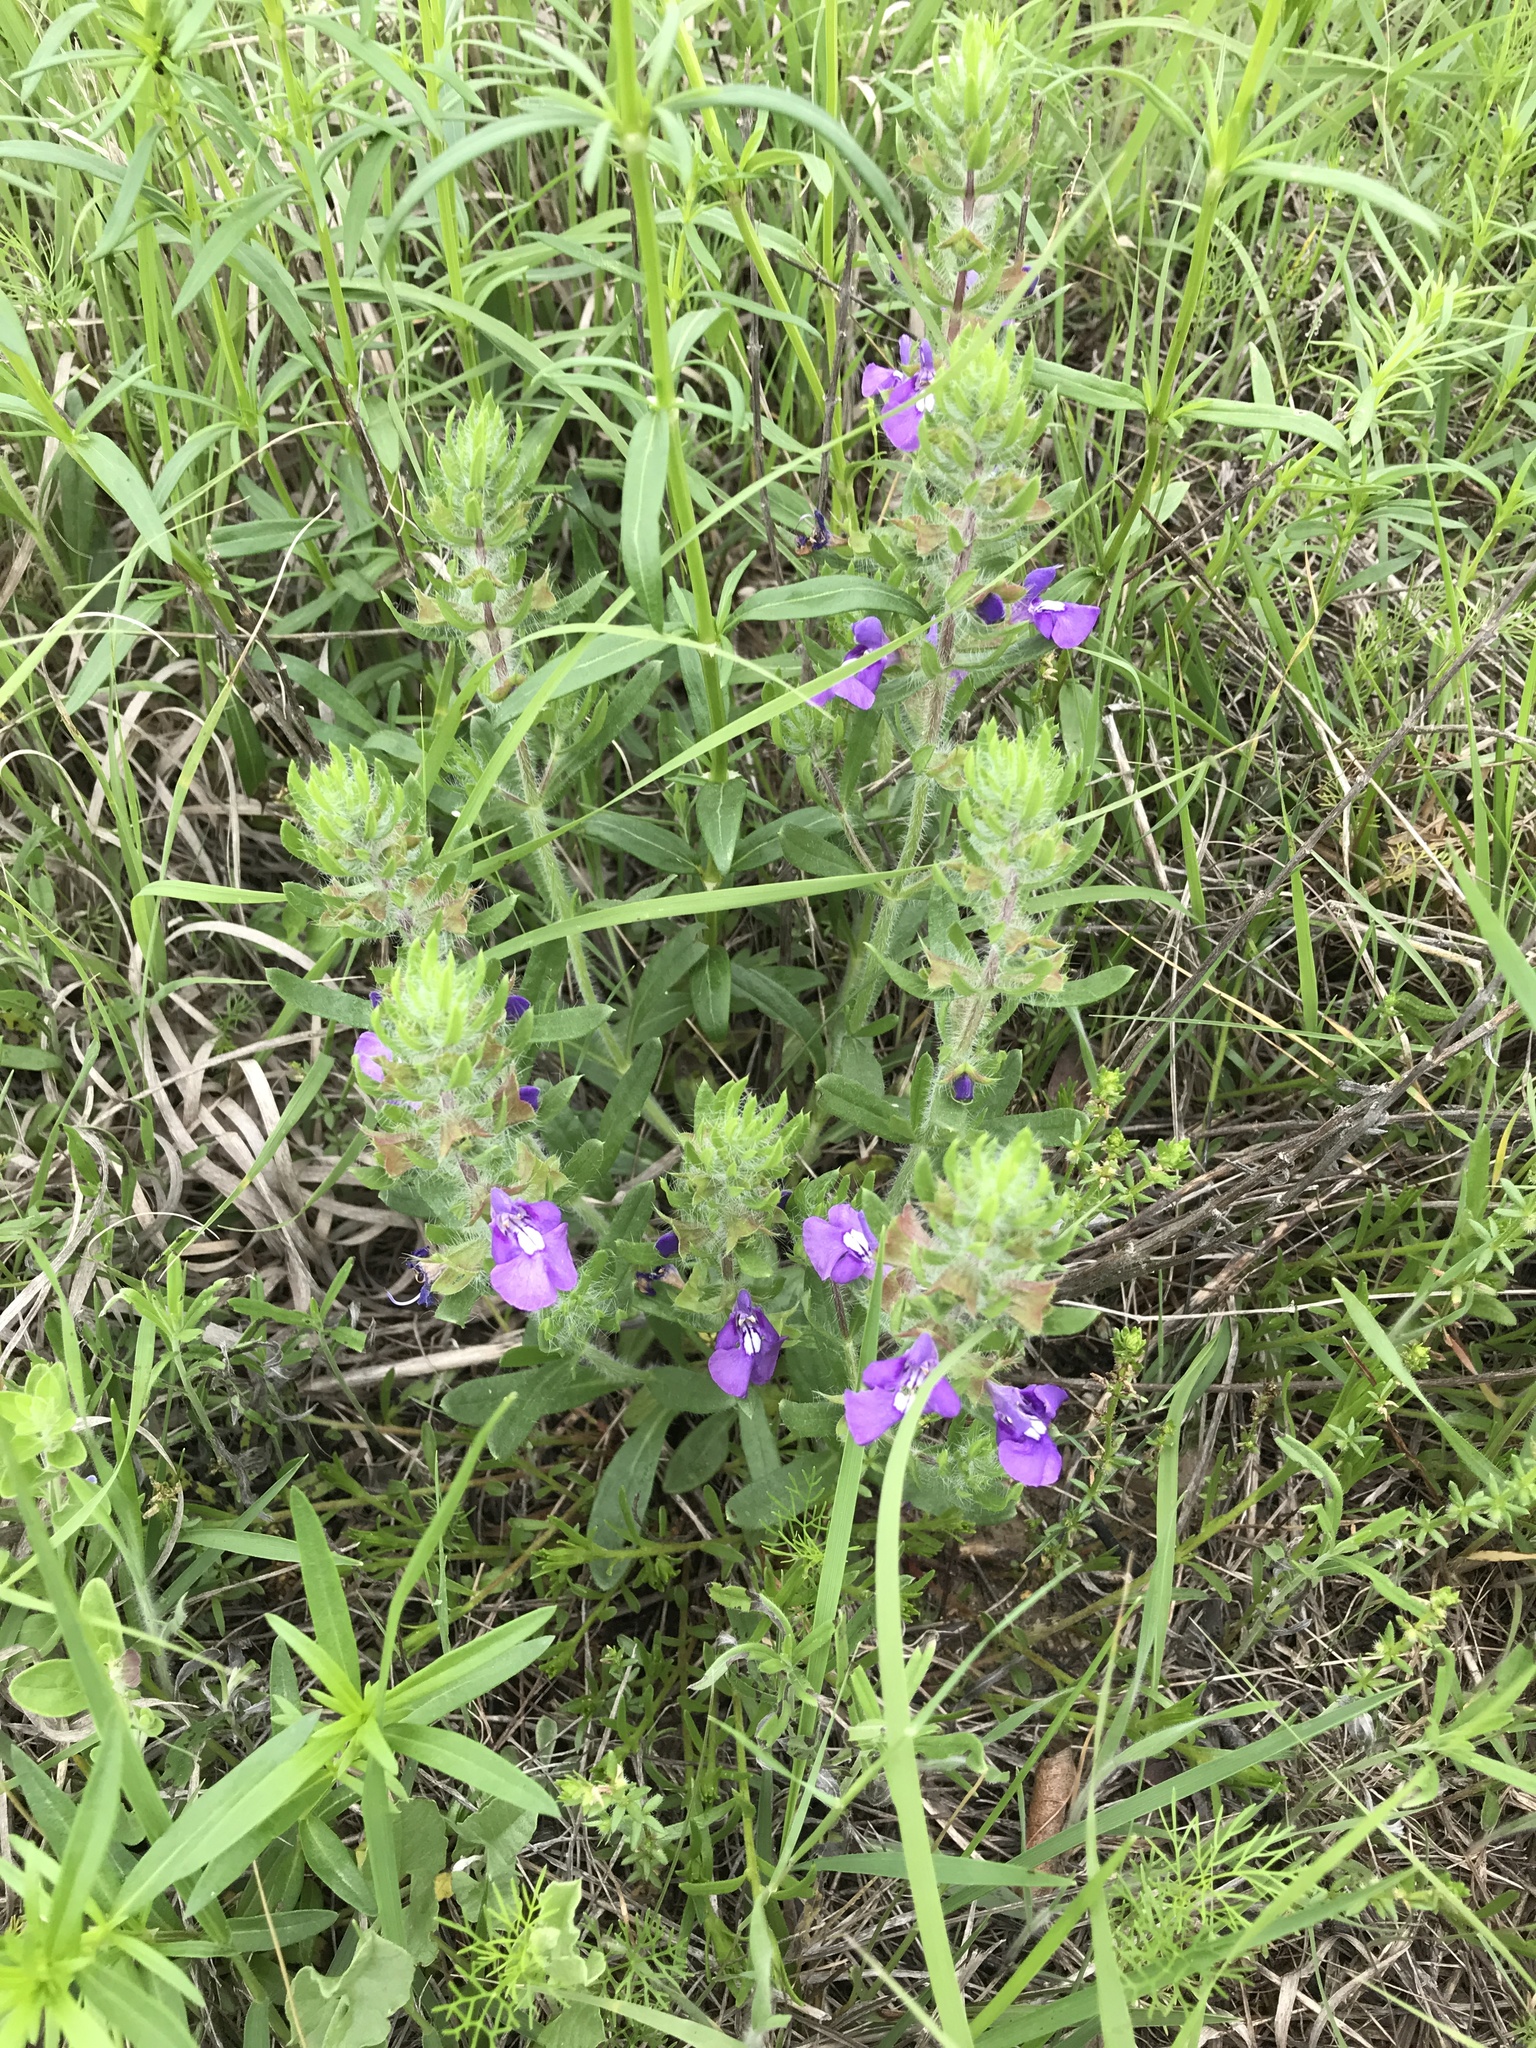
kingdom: Plantae
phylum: Tracheophyta
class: Magnoliopsida
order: Lamiales
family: Lamiaceae
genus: Salvia
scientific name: Salvia texana
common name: Texas sage
